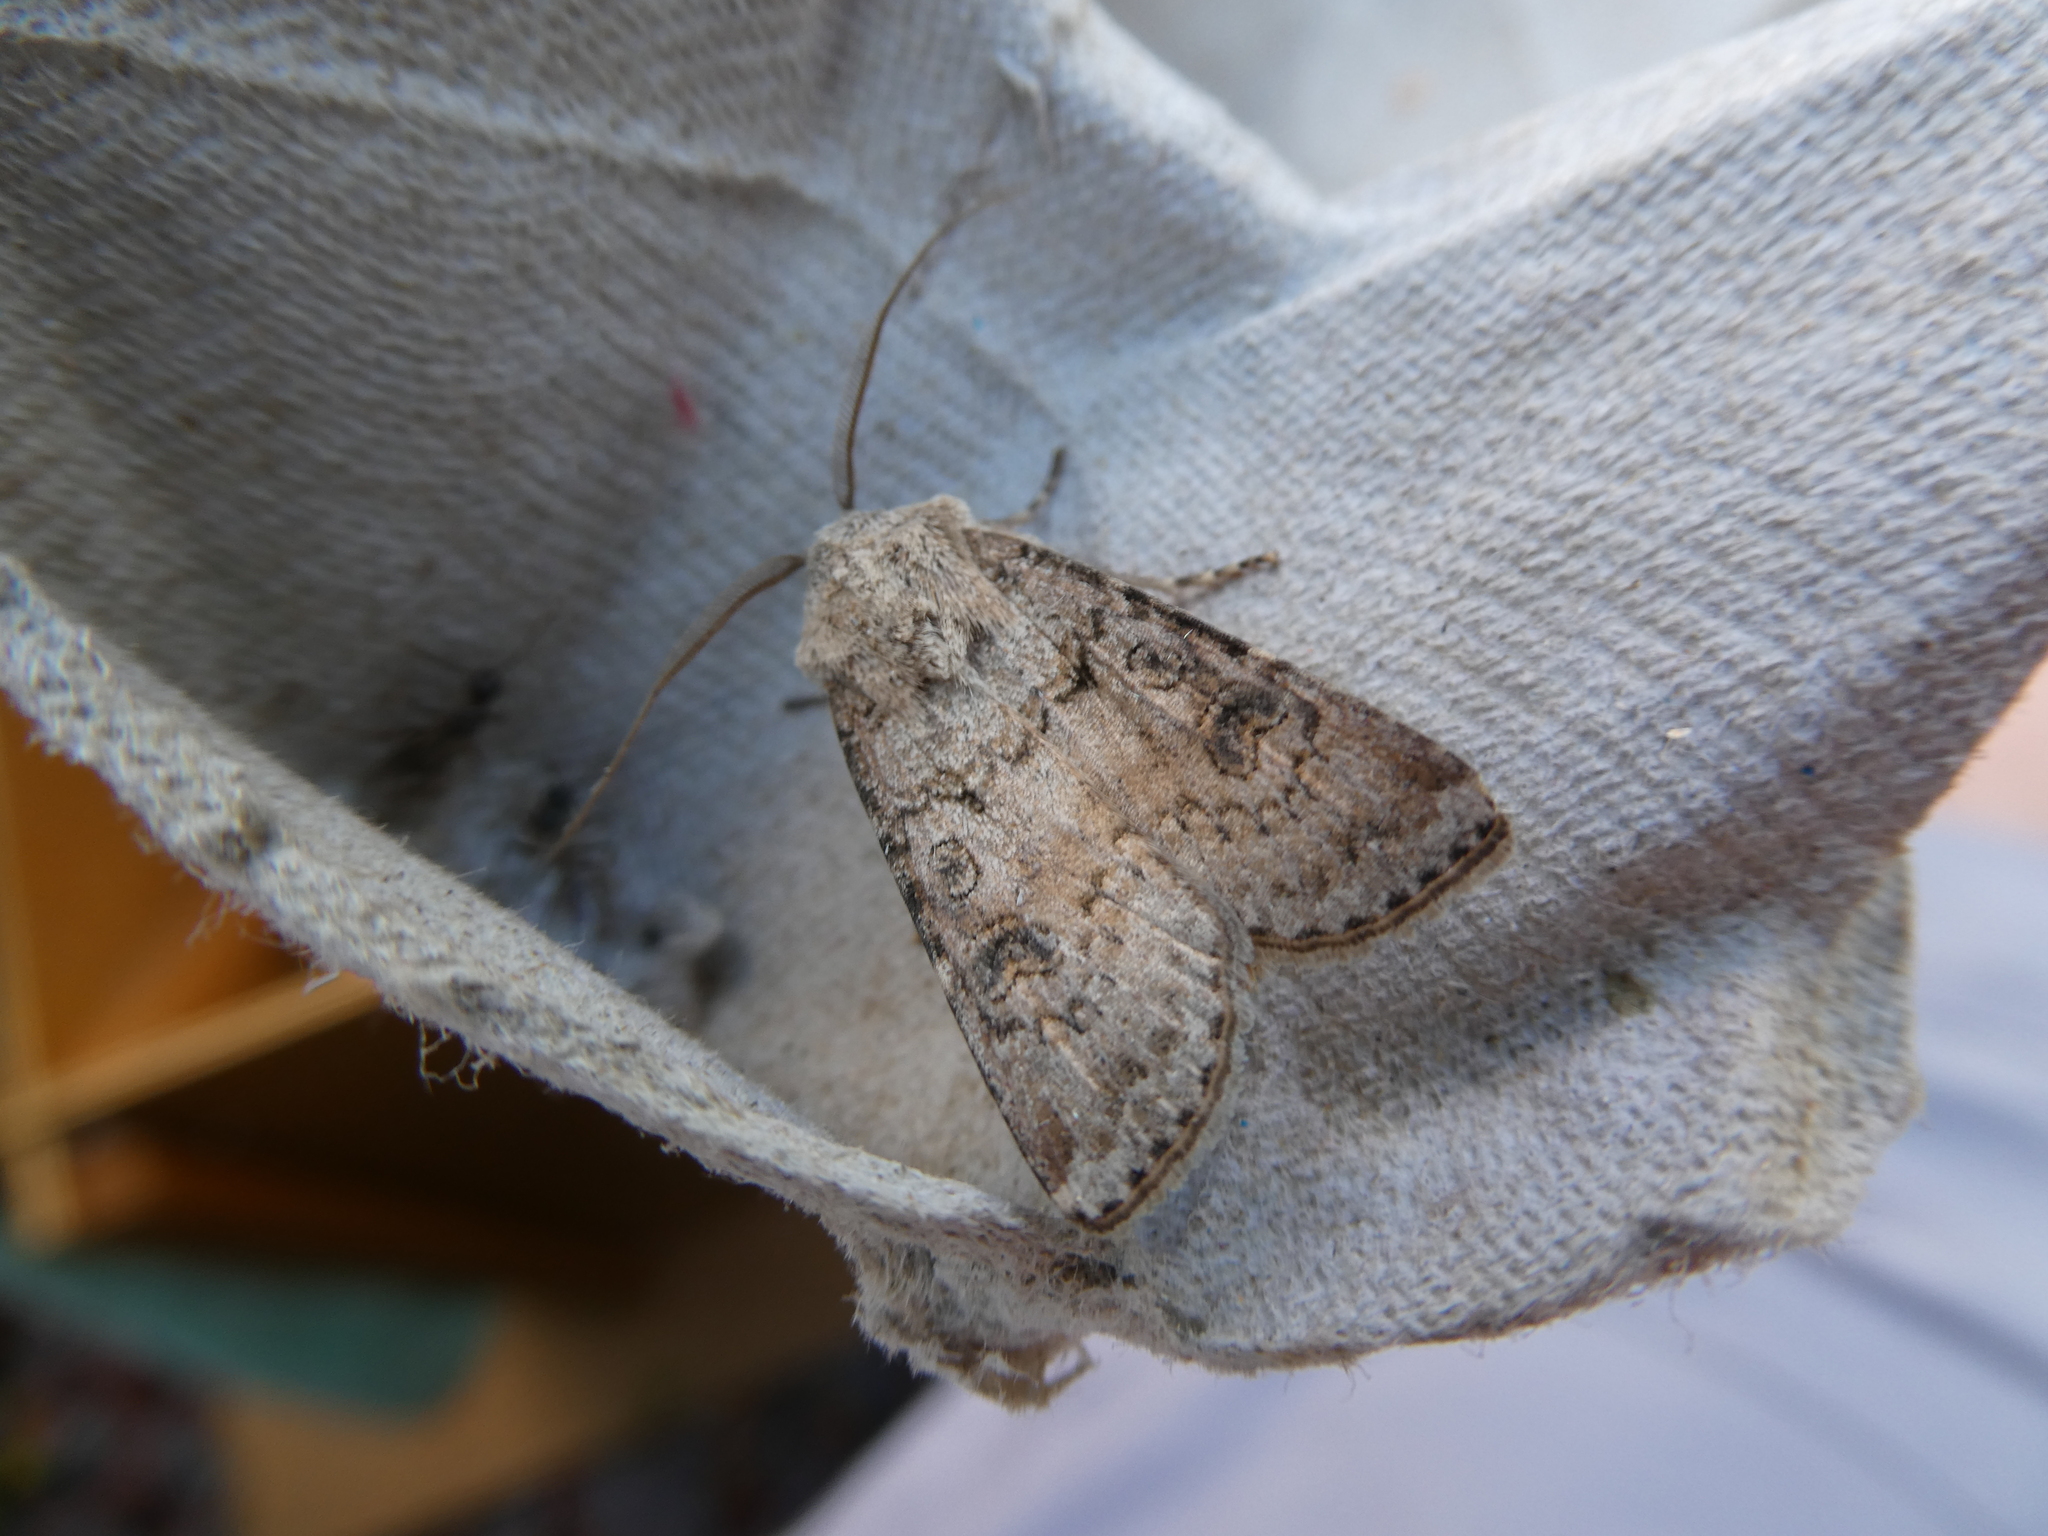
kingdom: Animalia
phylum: Arthropoda
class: Insecta
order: Lepidoptera
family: Noctuidae
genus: Agrotis
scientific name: Agrotis segetum
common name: Turnip moth
